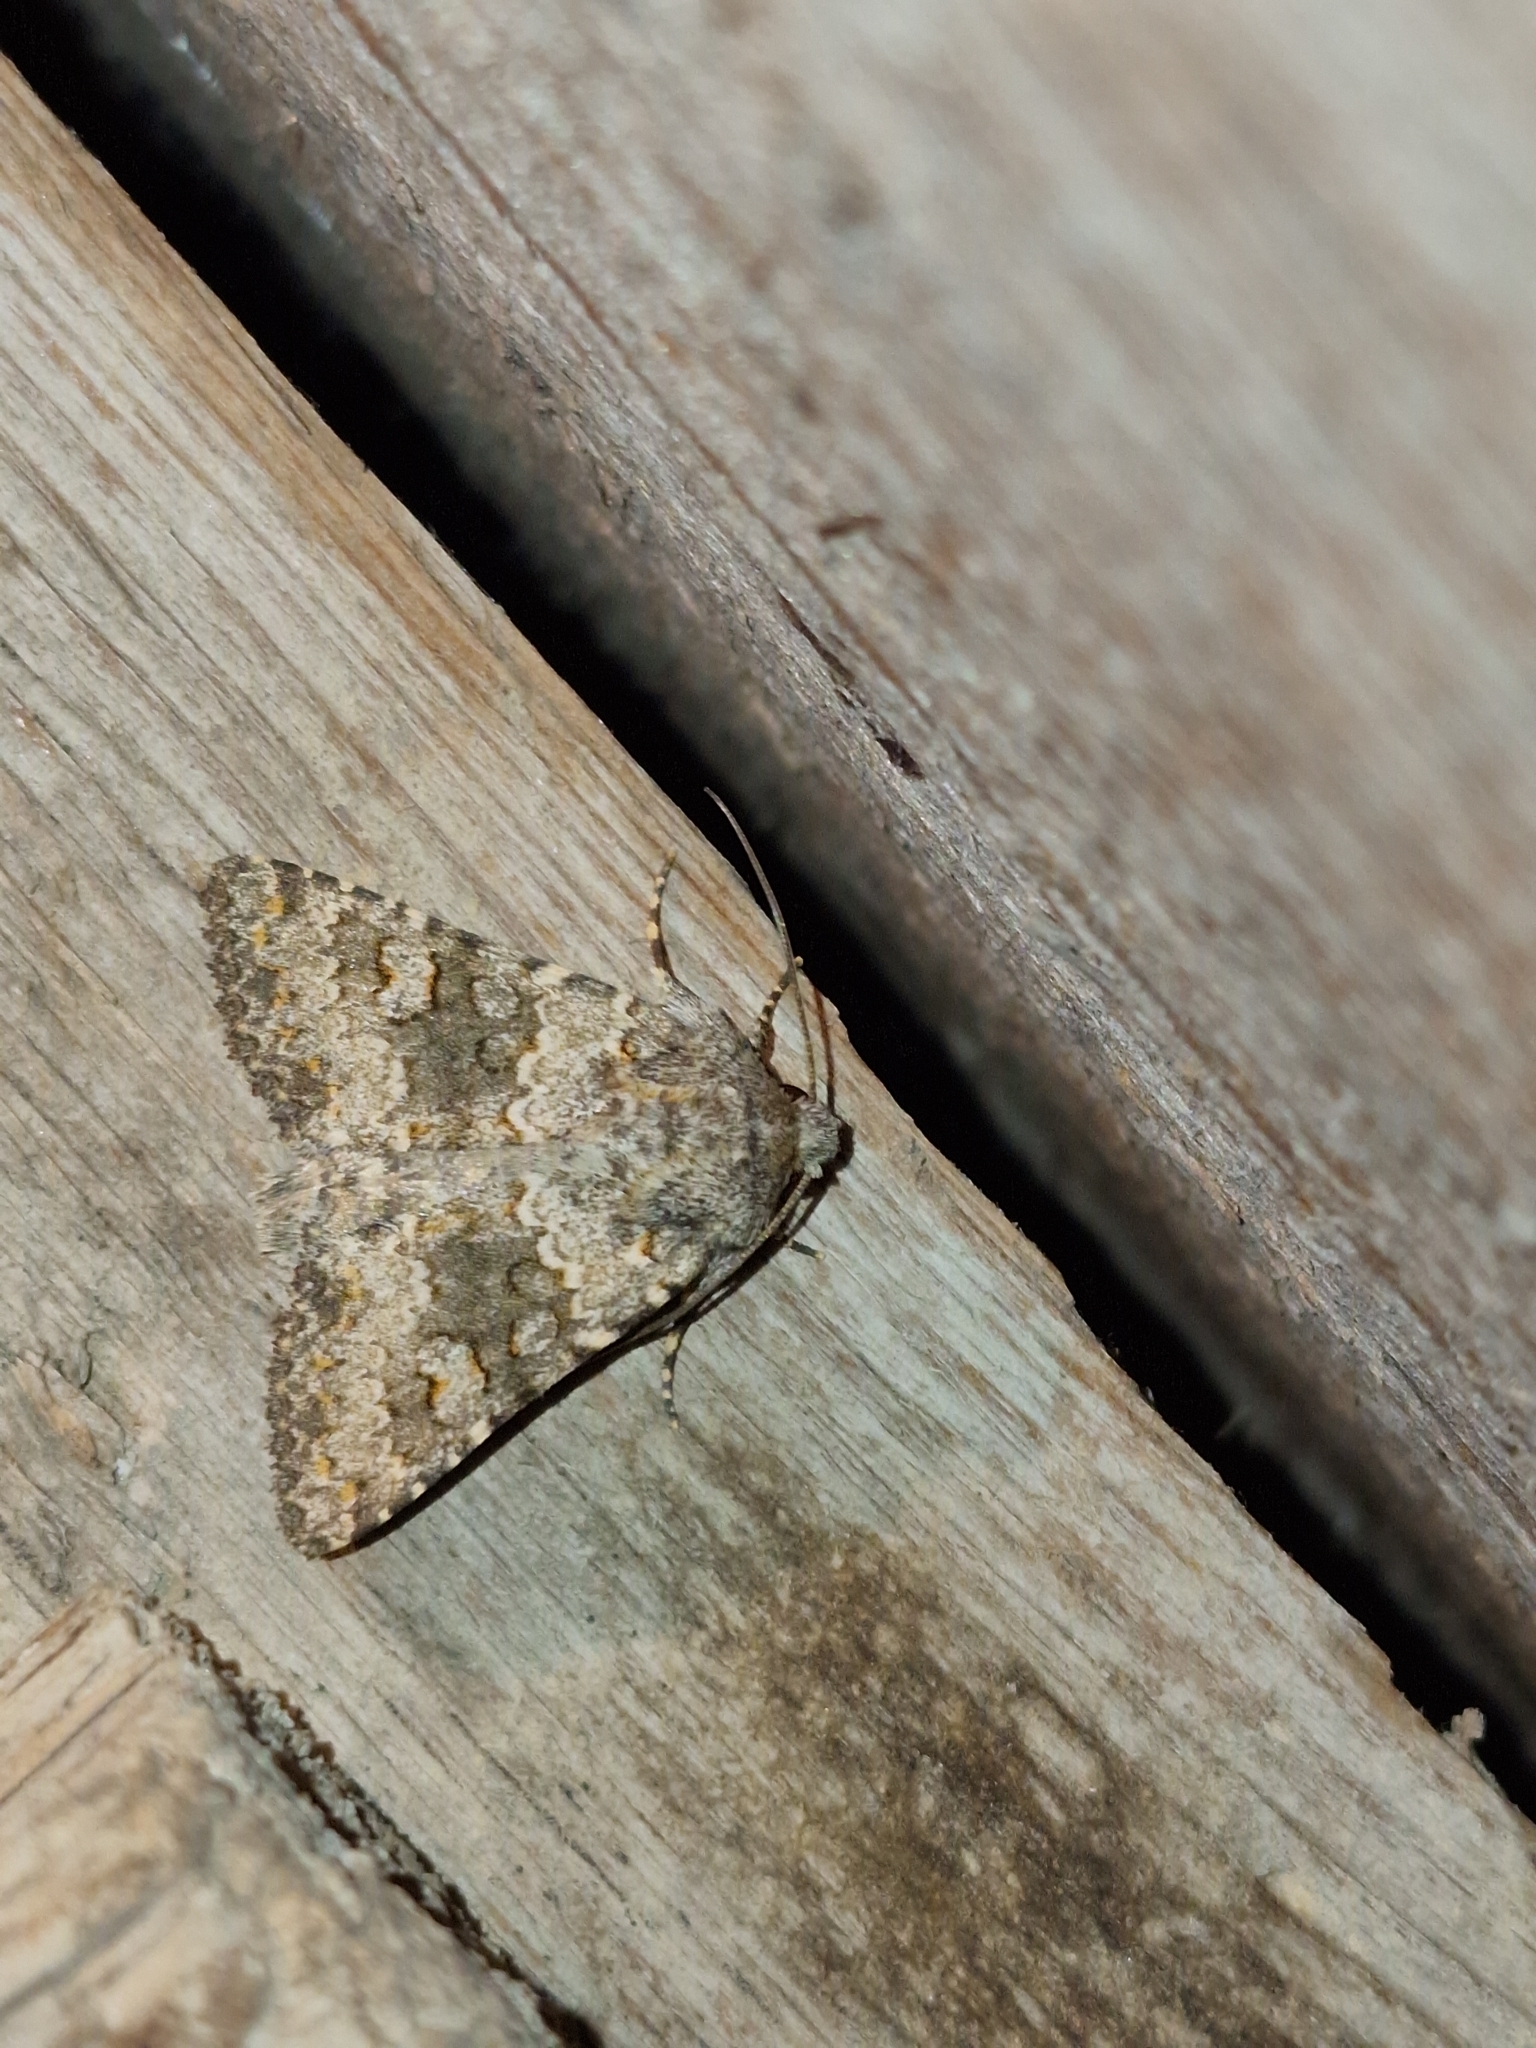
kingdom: Animalia
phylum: Arthropoda
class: Insecta
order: Lepidoptera
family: Noctuidae
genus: Hecatera
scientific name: Hecatera dysodea
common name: Small ranunculus
